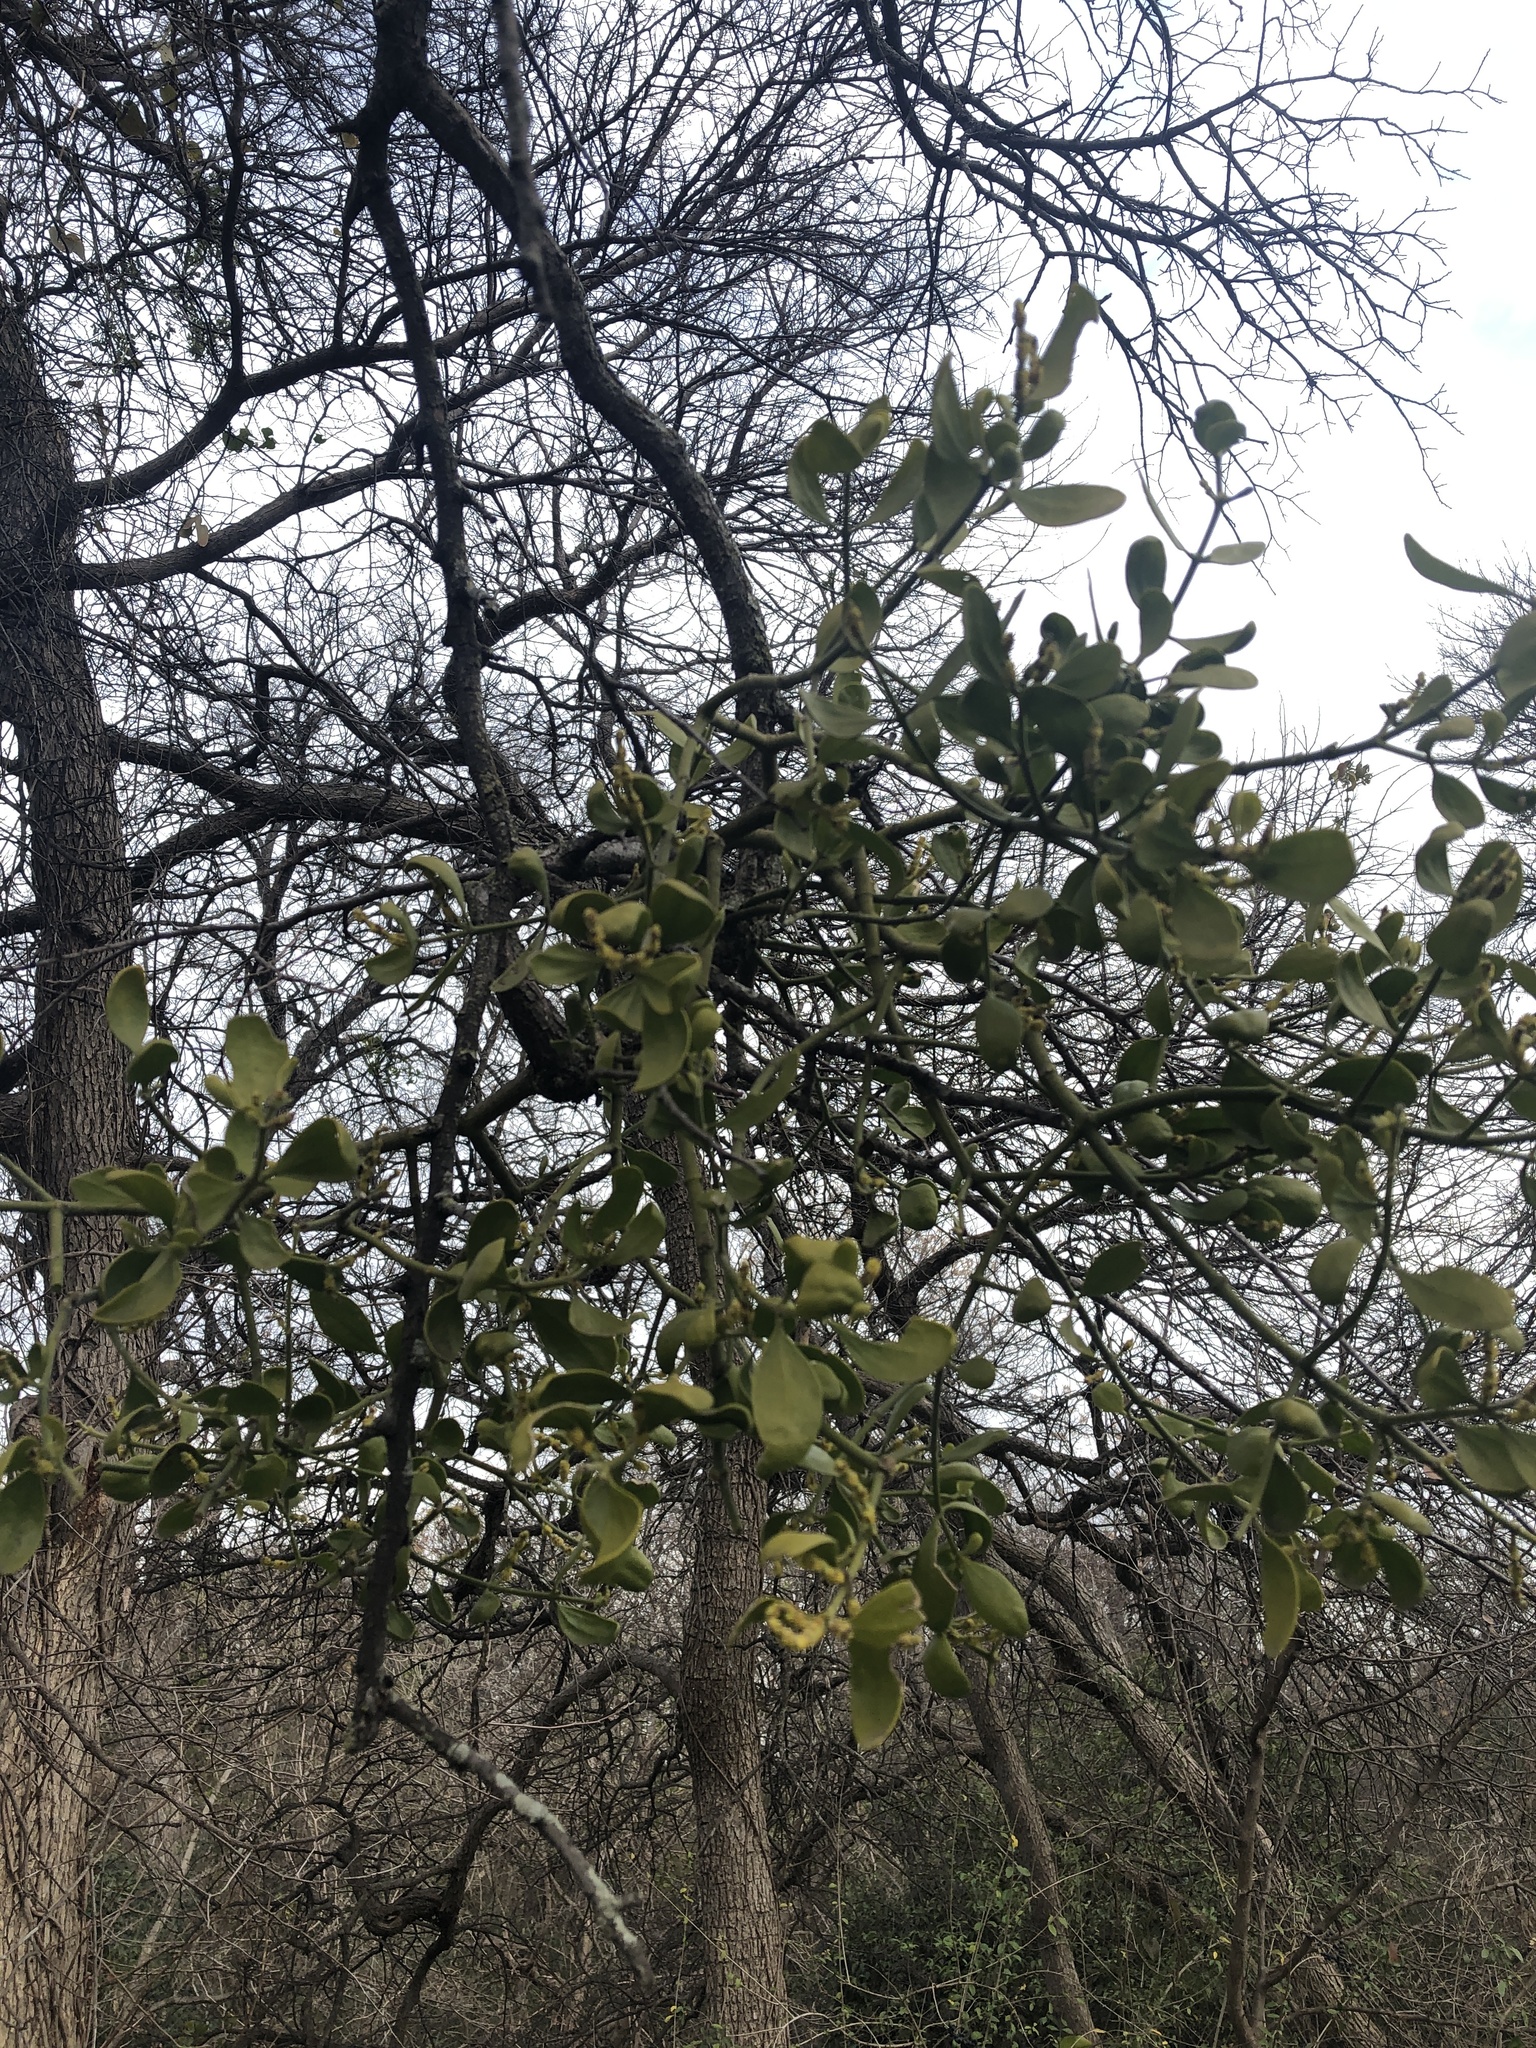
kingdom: Plantae
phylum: Tracheophyta
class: Magnoliopsida
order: Santalales
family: Viscaceae
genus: Phoradendron
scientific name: Phoradendron leucarpum
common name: Pacific mistletoe
